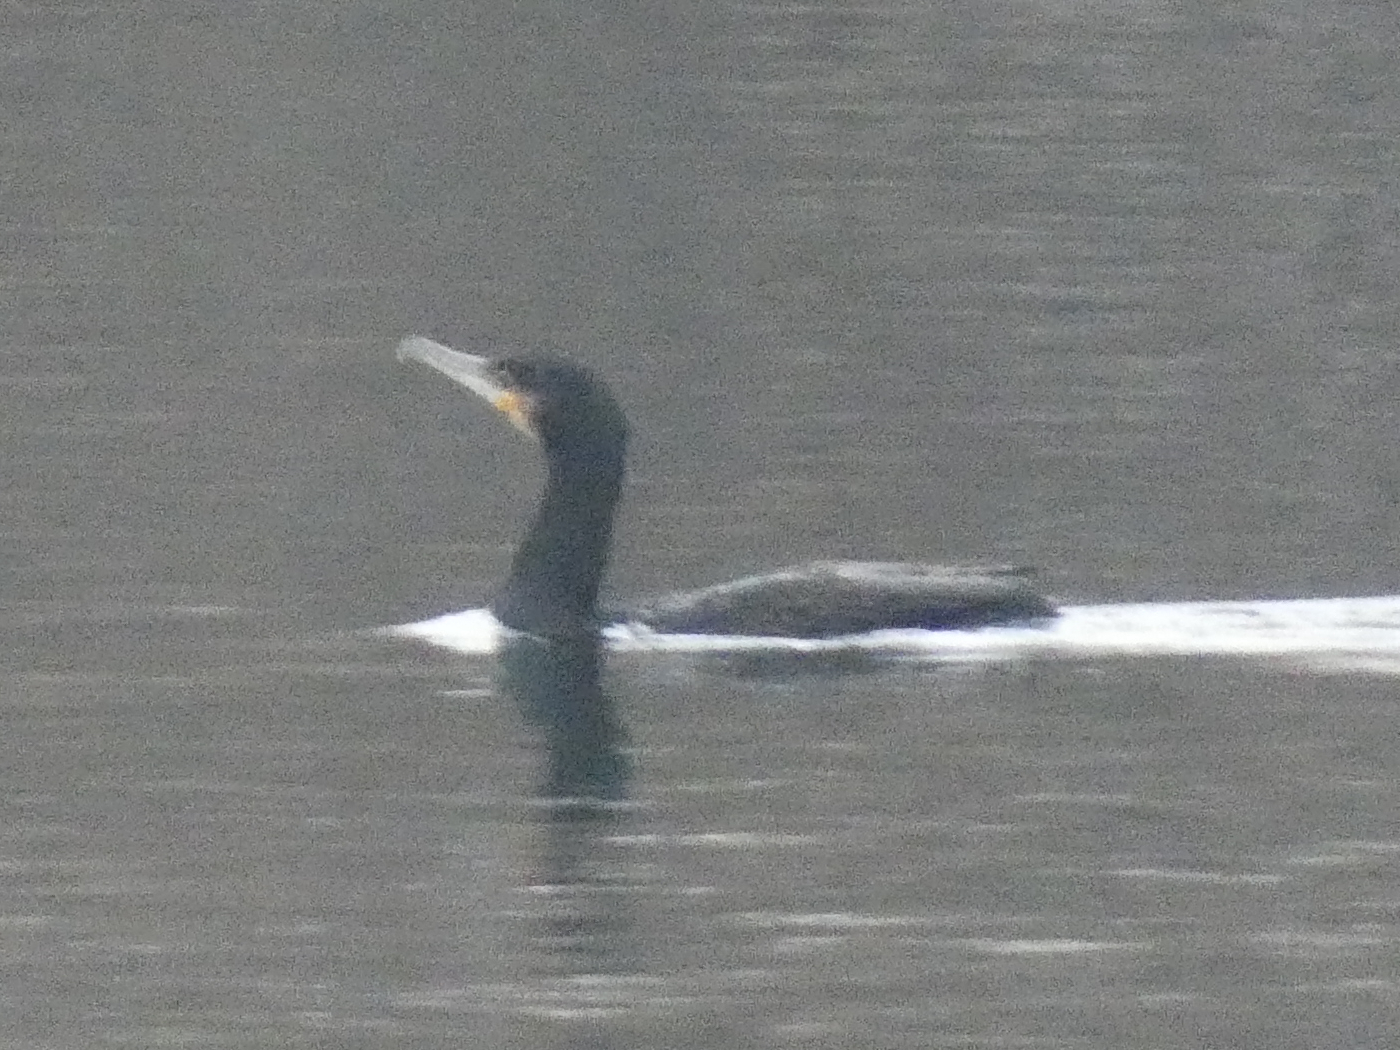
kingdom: Animalia
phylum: Chordata
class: Aves
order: Suliformes
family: Phalacrocoracidae
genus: Phalacrocorax
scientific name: Phalacrocorax carbo
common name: Great cormorant
